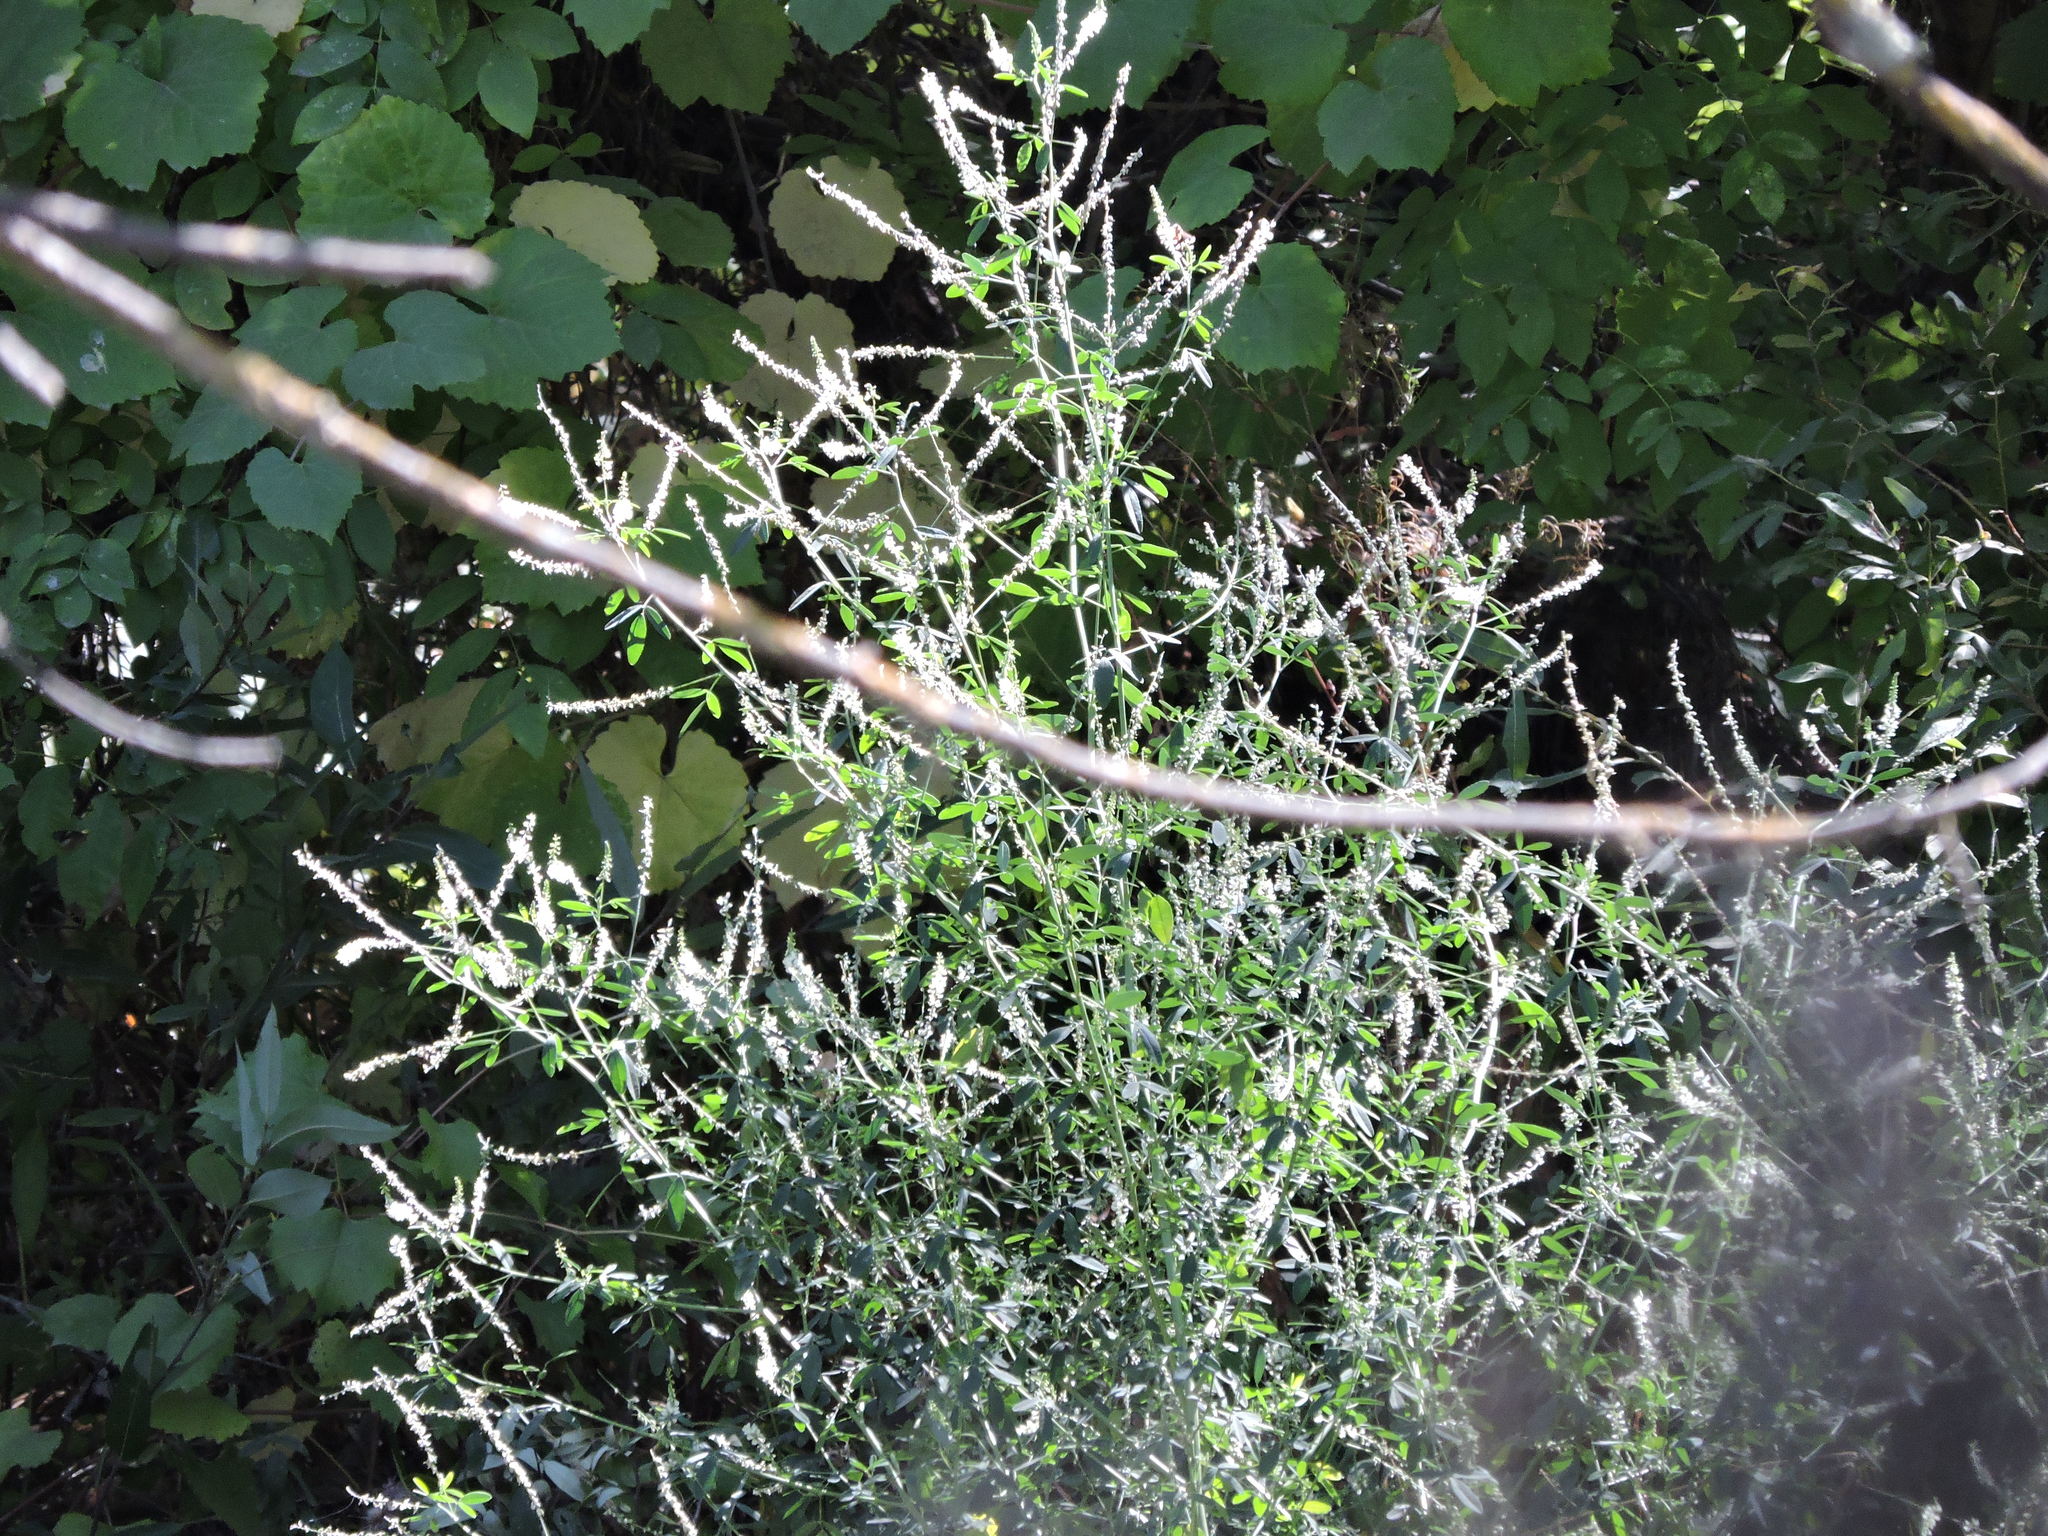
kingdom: Plantae
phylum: Tracheophyta
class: Magnoliopsida
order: Fabales
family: Fabaceae
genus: Melilotus
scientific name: Melilotus albus
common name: White melilot
